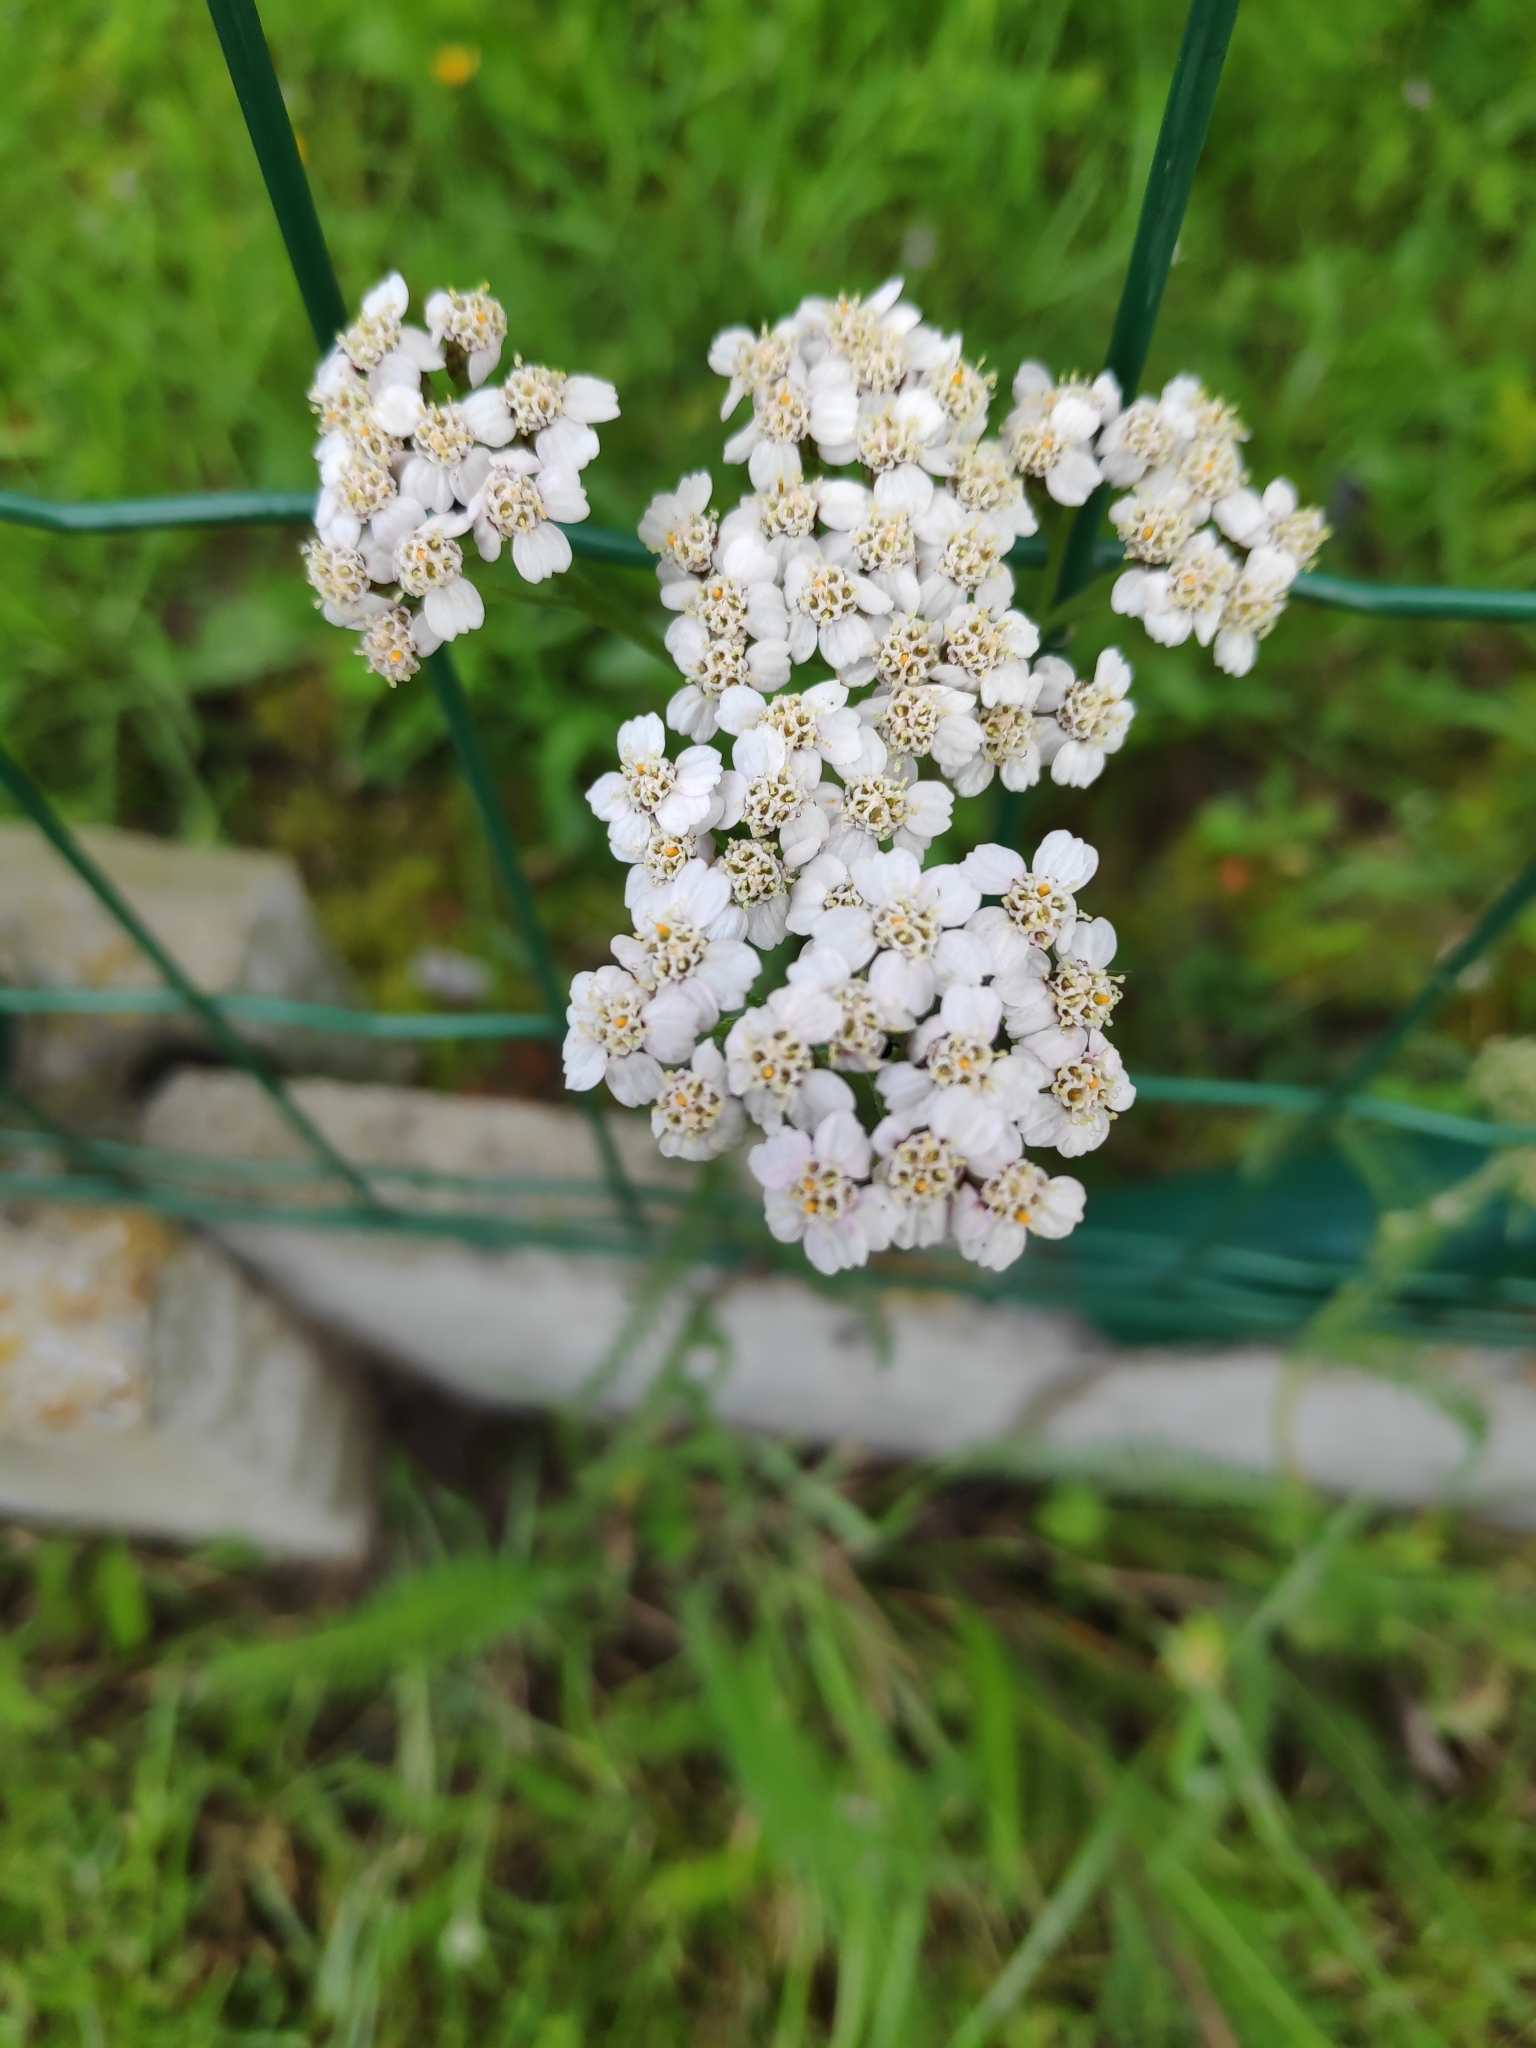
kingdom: Plantae
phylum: Tracheophyta
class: Magnoliopsida
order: Asterales
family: Asteraceae
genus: Achillea
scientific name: Achillea millefolium
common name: Yarrow
